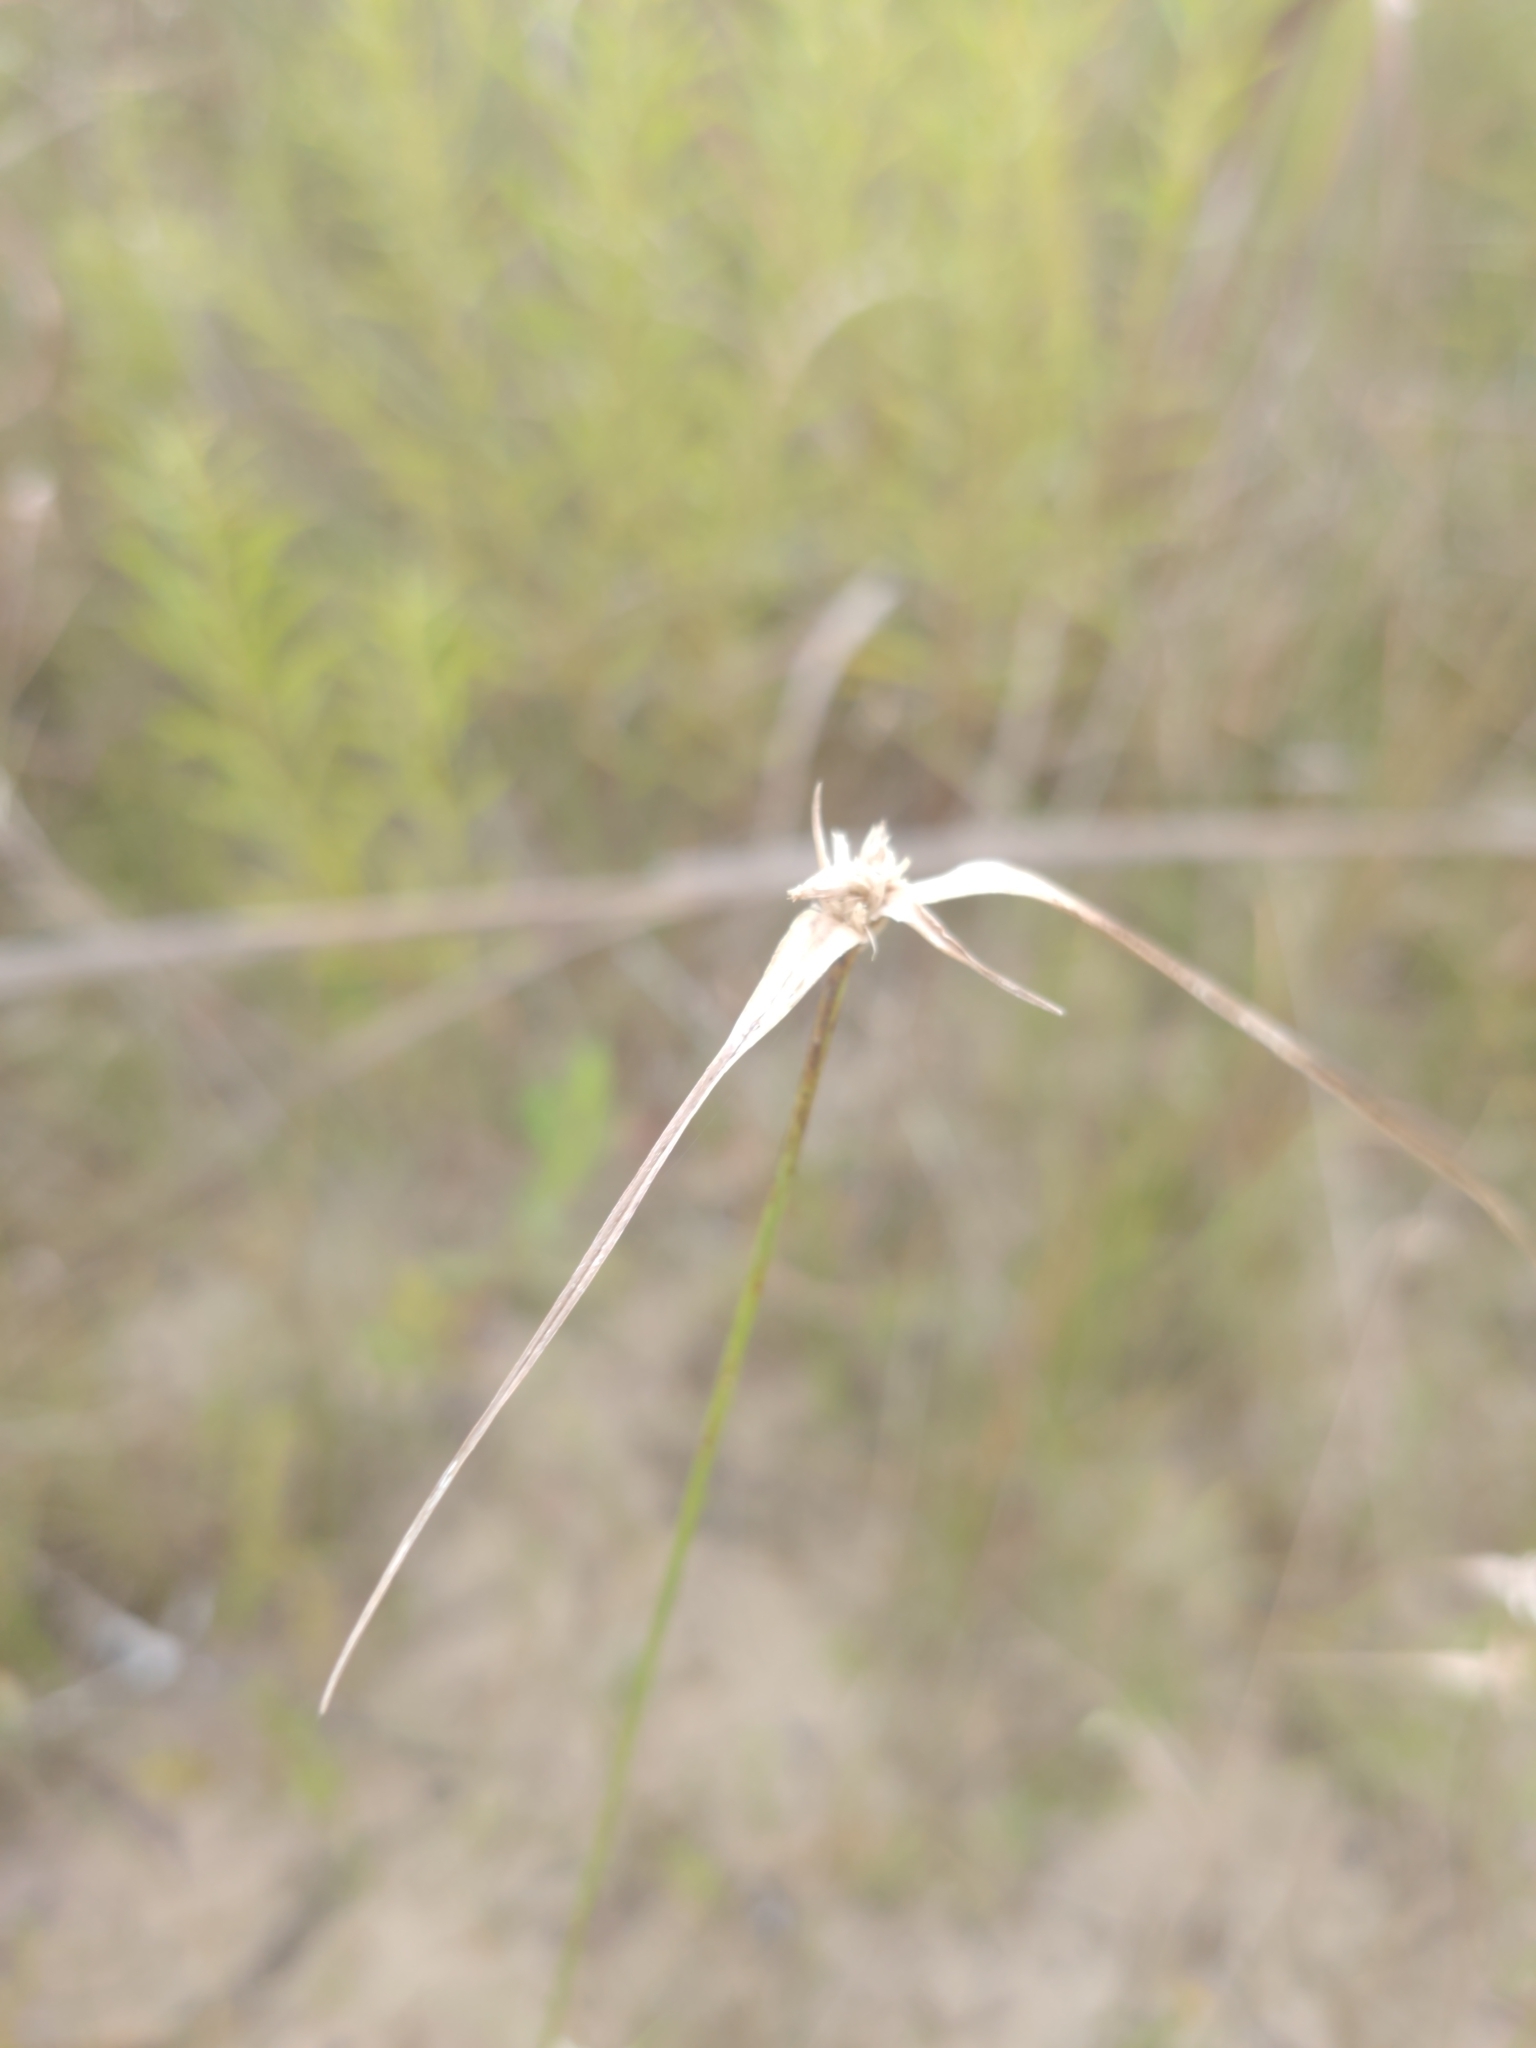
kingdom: Plantae
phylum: Tracheophyta
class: Liliopsida
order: Poales
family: Cyperaceae
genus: Rhynchospora
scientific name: Rhynchospora colorata
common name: Star sedge
